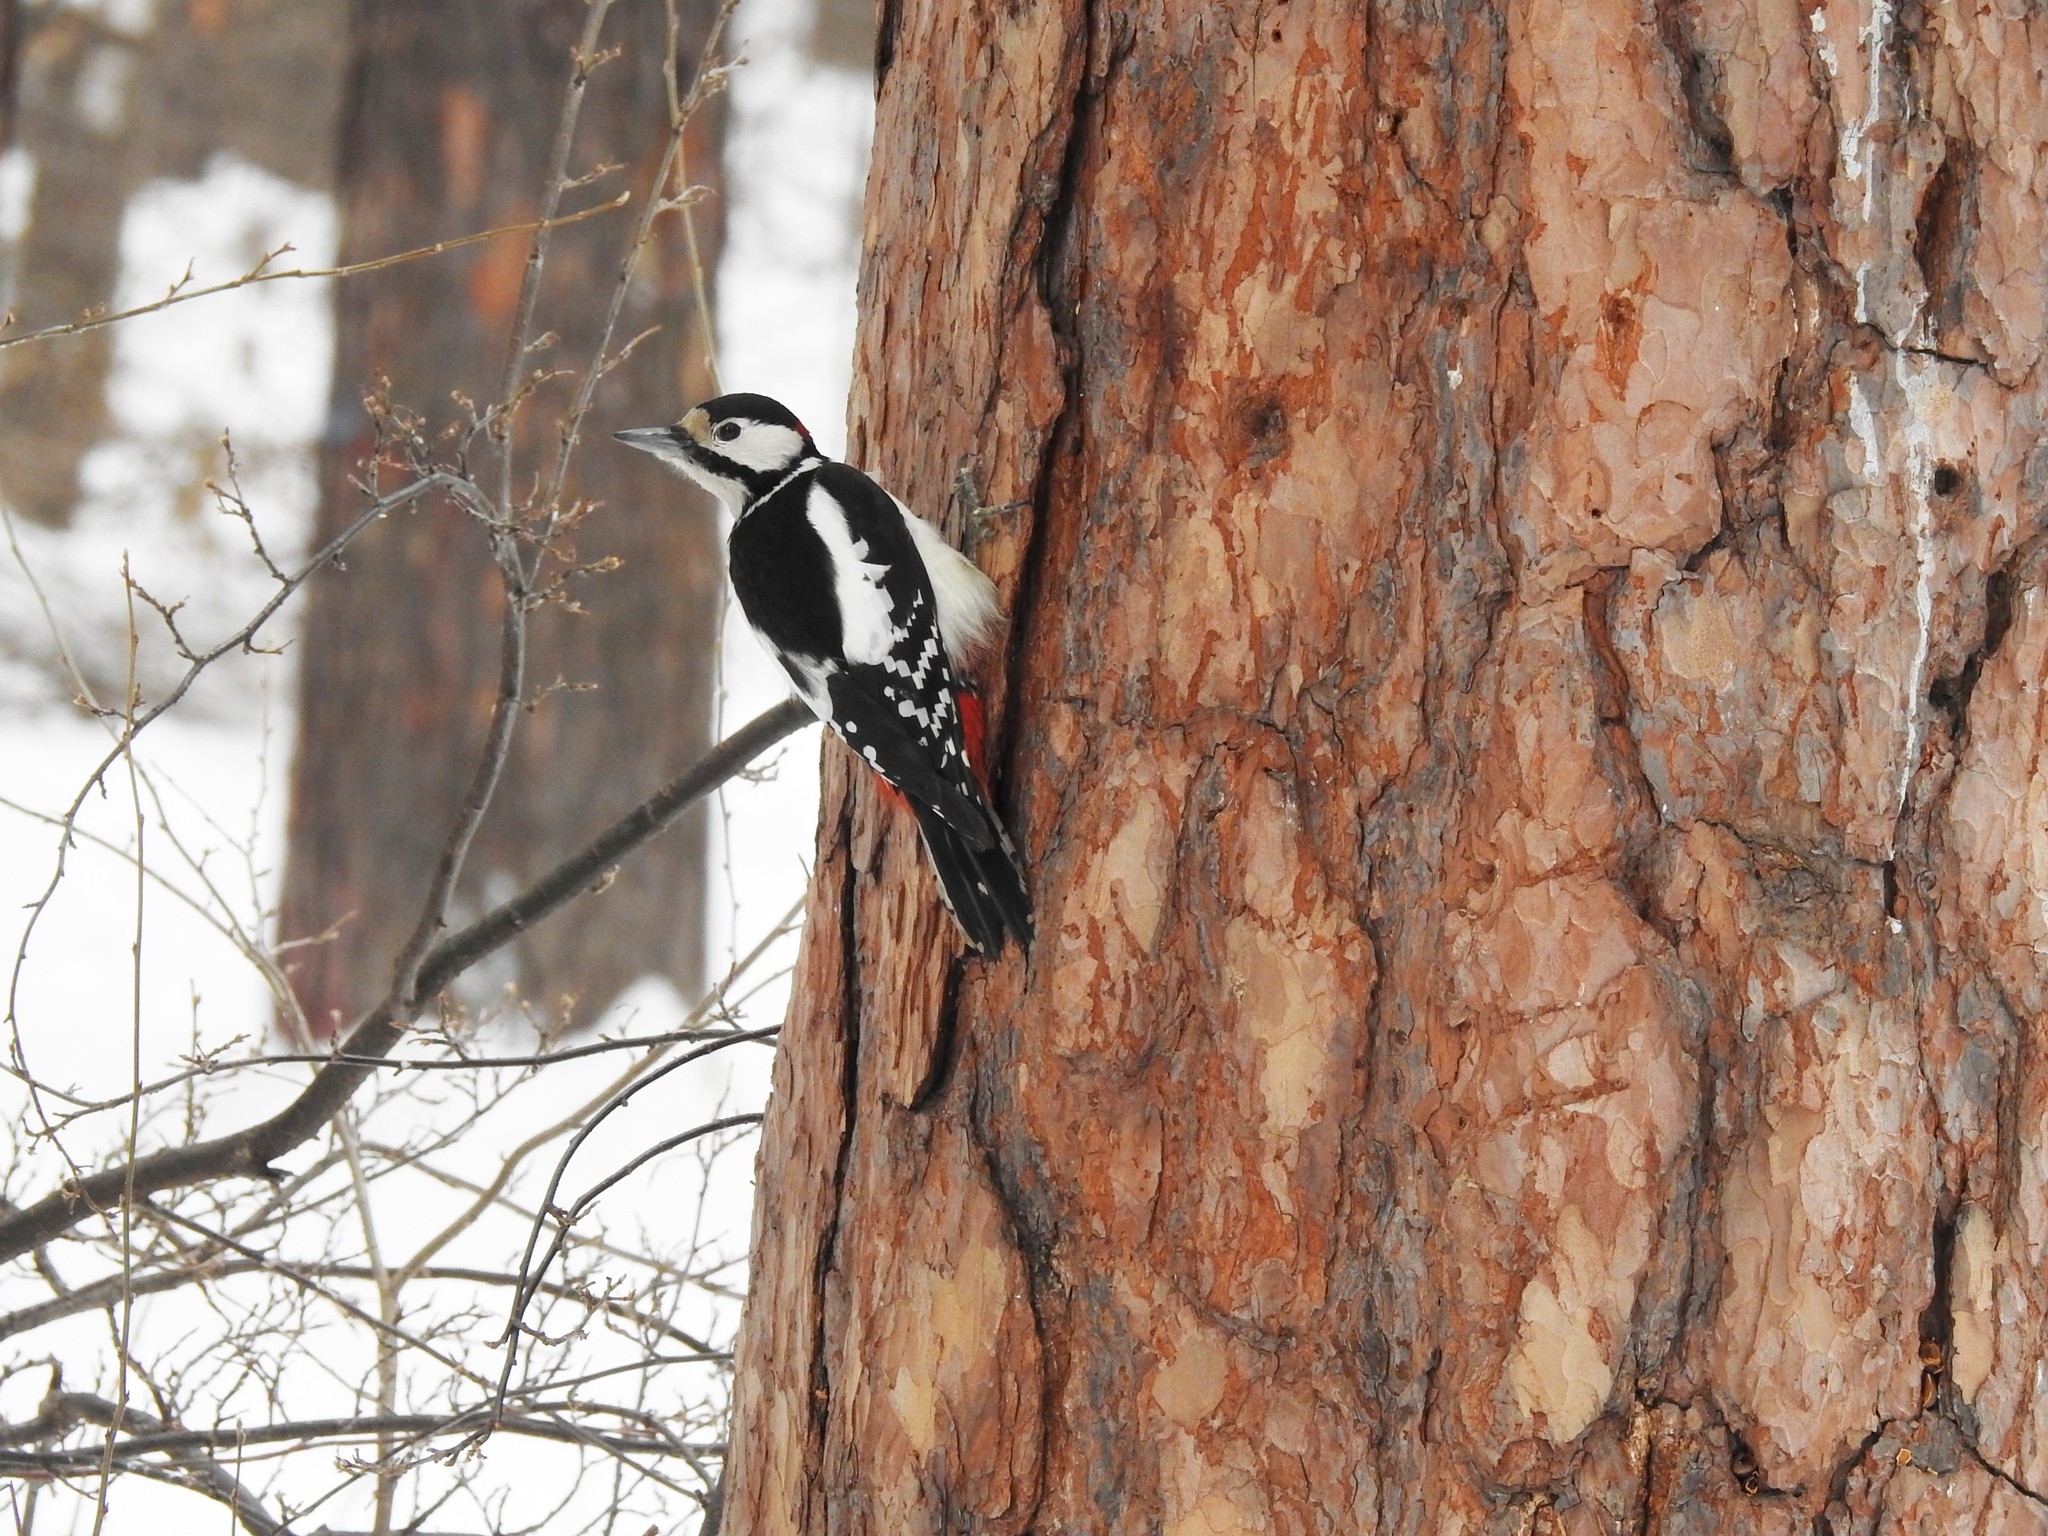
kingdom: Animalia
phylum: Chordata
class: Aves
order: Piciformes
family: Picidae
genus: Dendrocopos
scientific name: Dendrocopos major
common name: Great spotted woodpecker
